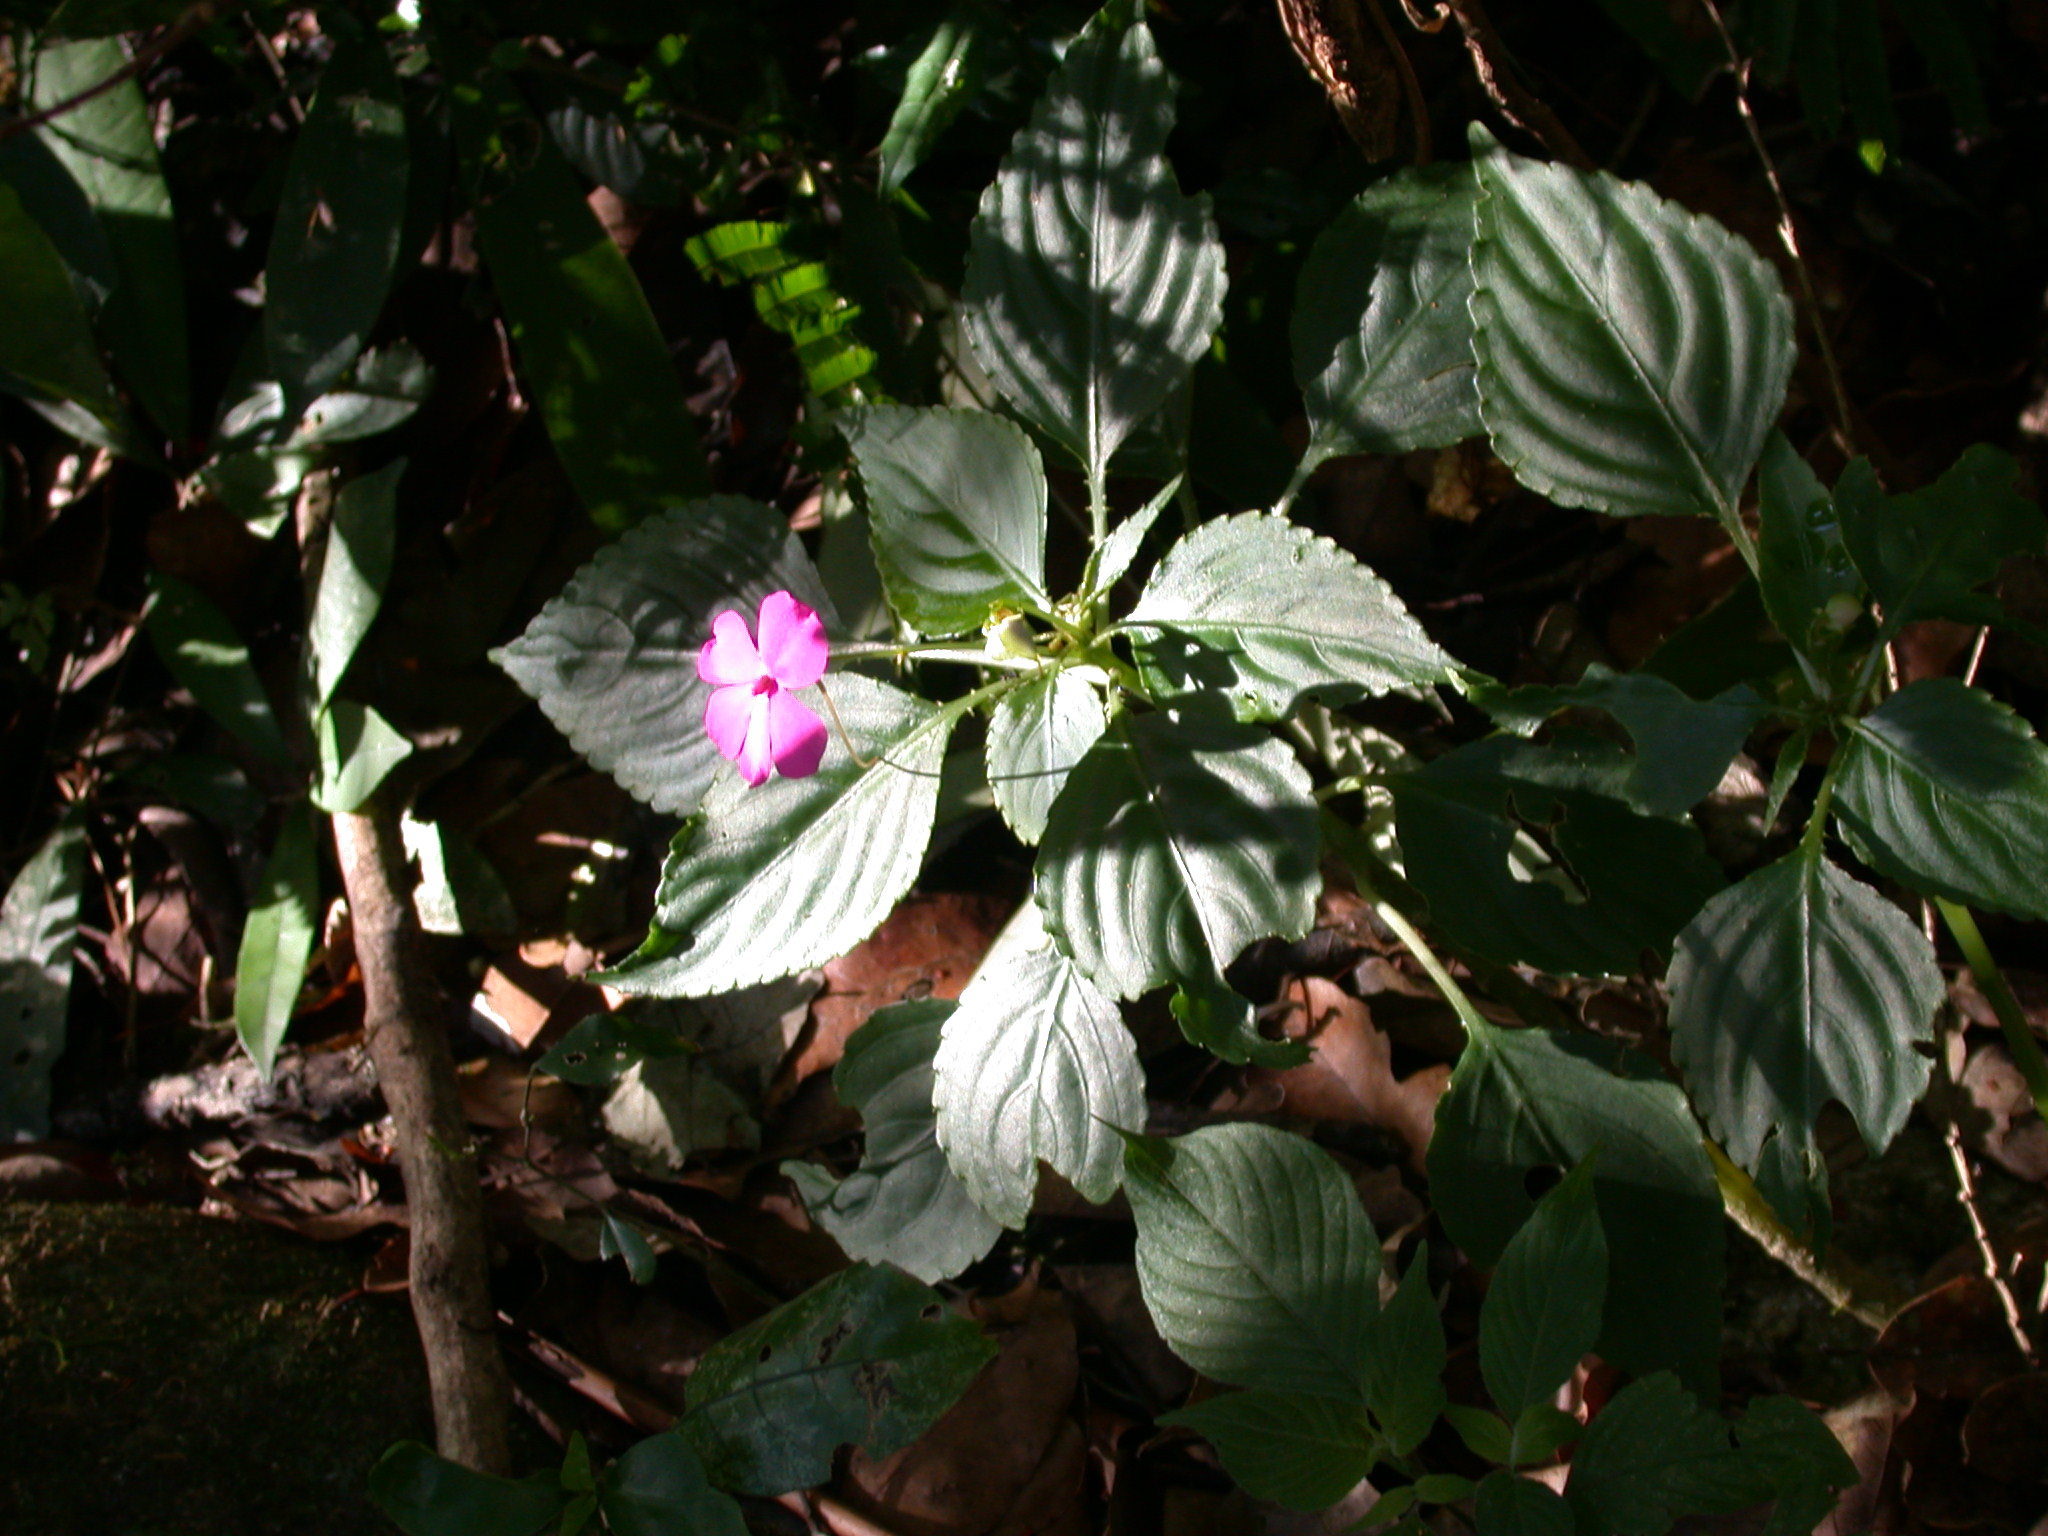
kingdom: Plantae
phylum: Tracheophyta
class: Magnoliopsida
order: Ericales
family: Balsaminaceae
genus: Impatiens
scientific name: Impatiens walleriana
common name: Buzzy lizzy
